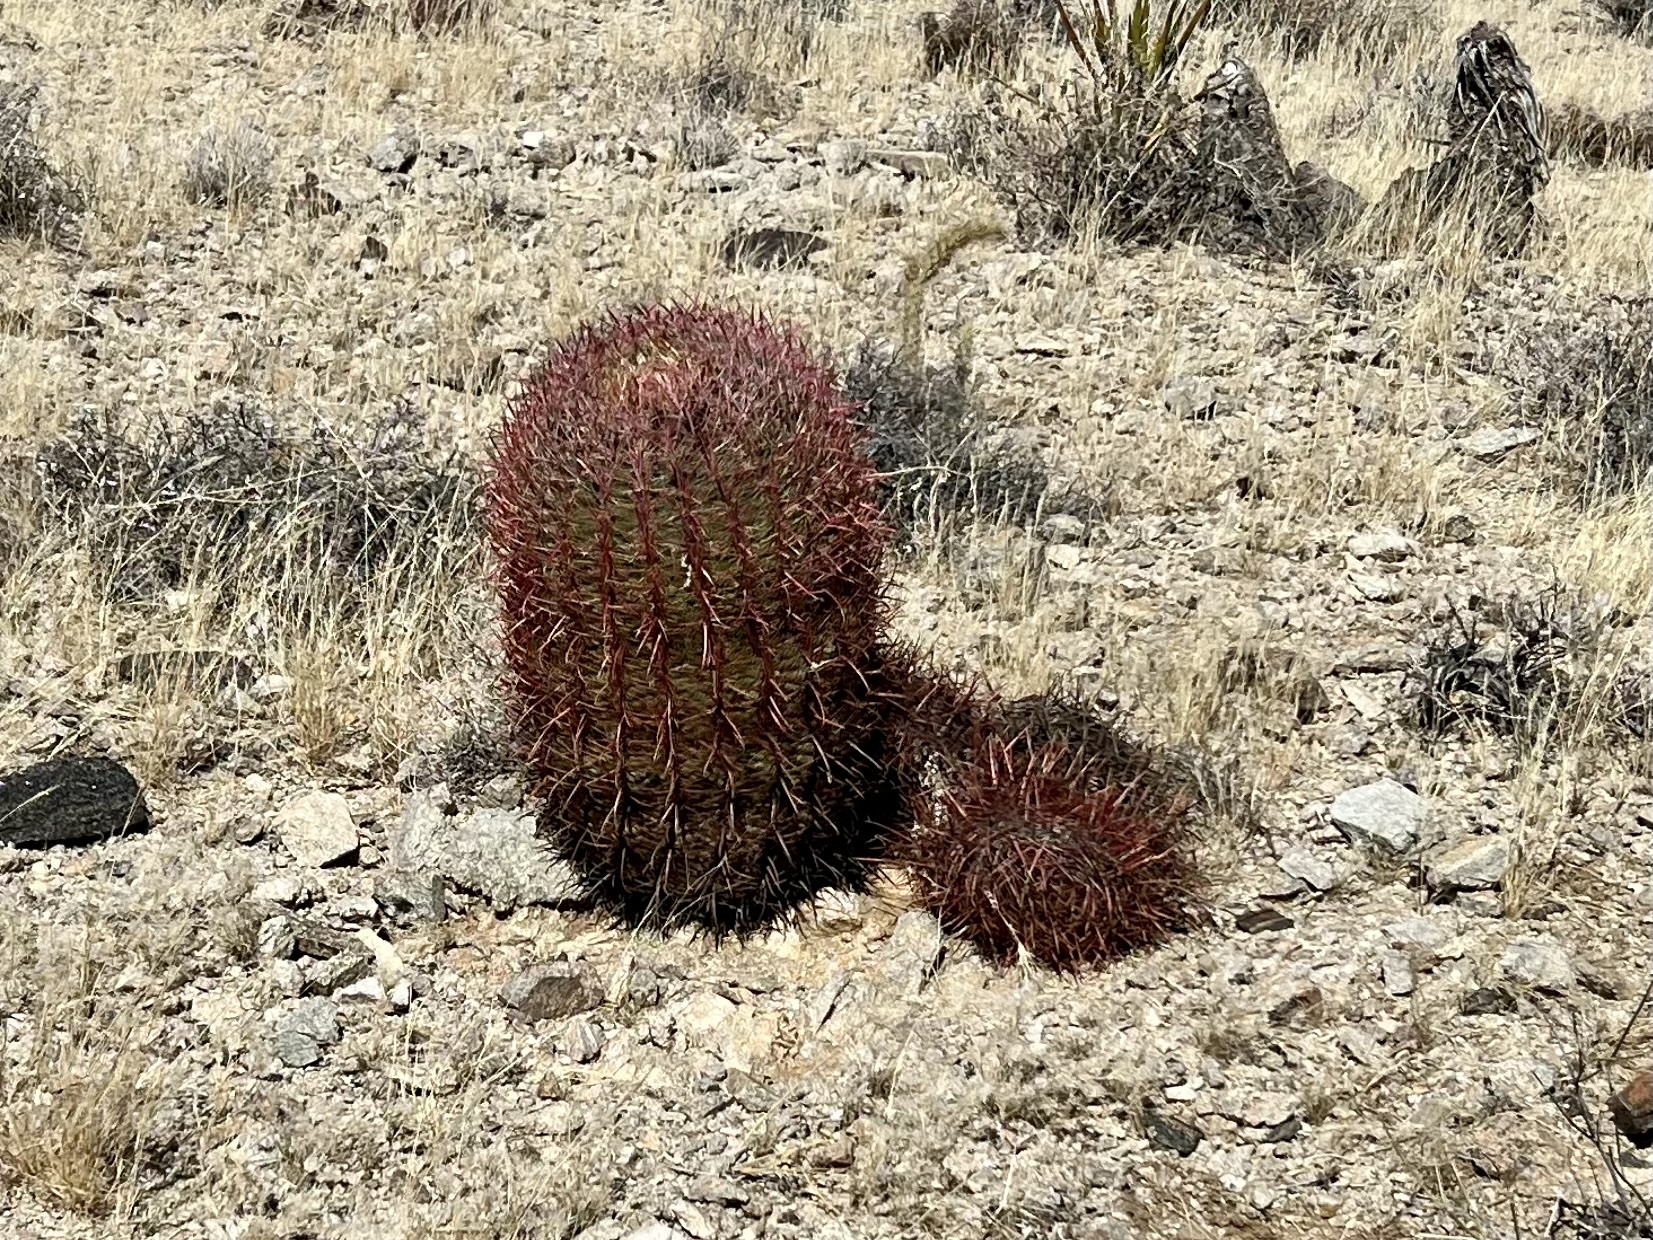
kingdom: Plantae
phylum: Tracheophyta
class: Magnoliopsida
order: Caryophyllales
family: Cactaceae
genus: Ferocactus
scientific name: Ferocactus cylindraceus
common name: California barrel cactus
